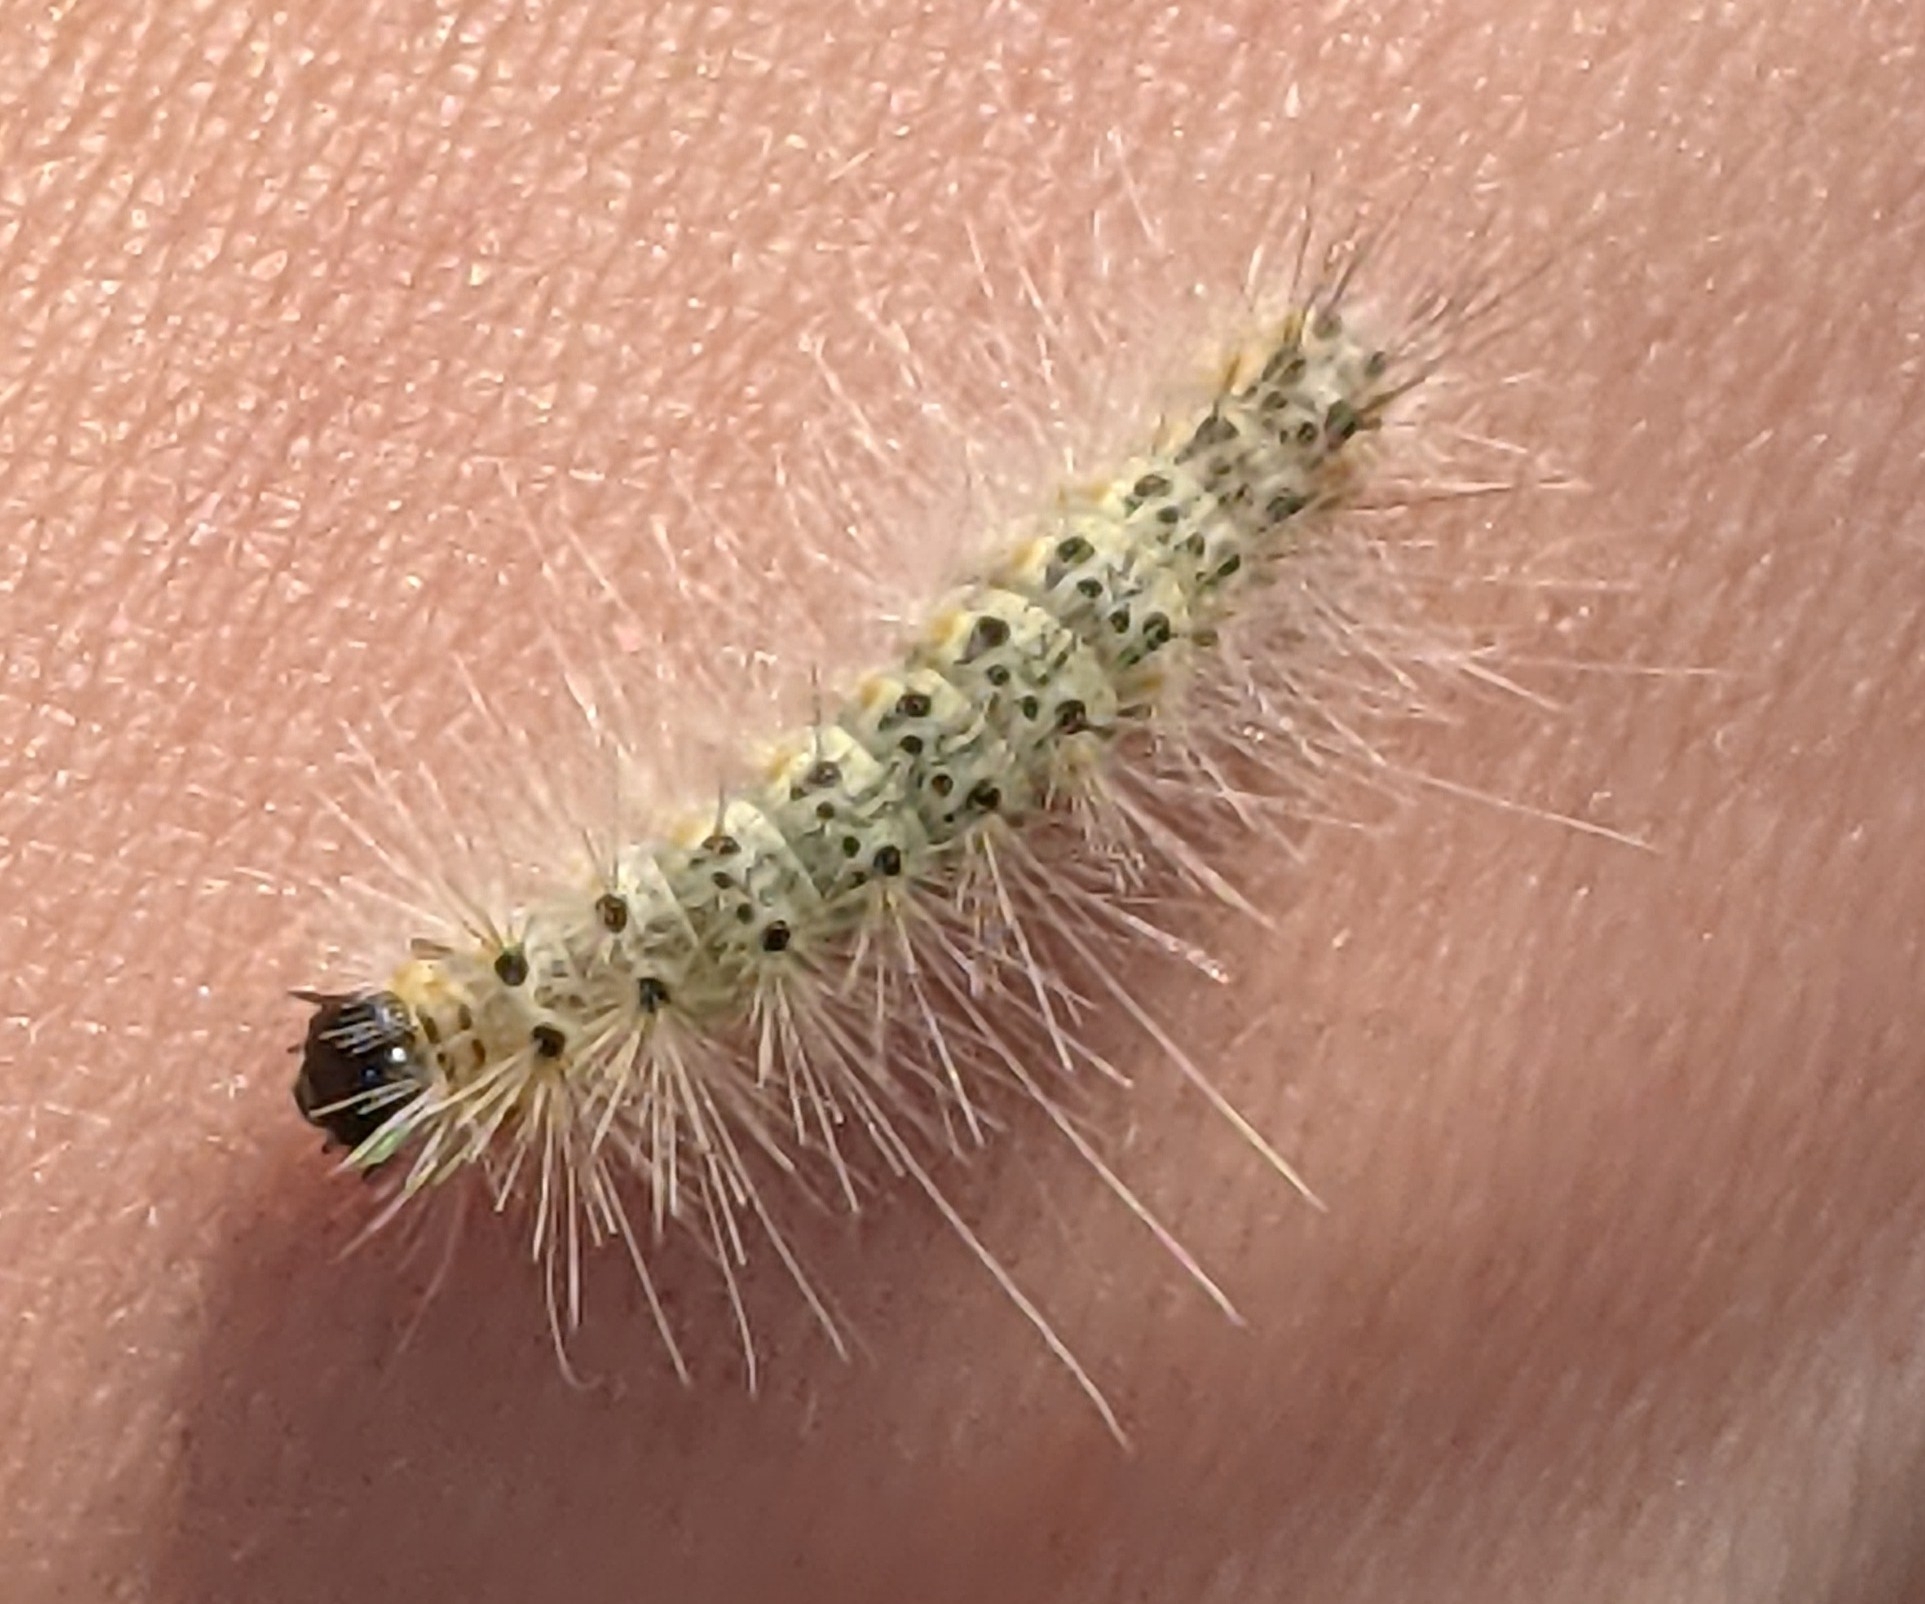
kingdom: Animalia
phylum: Arthropoda
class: Insecta
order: Lepidoptera
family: Erebidae
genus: Hyphantria
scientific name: Hyphantria cunea
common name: American white moth
